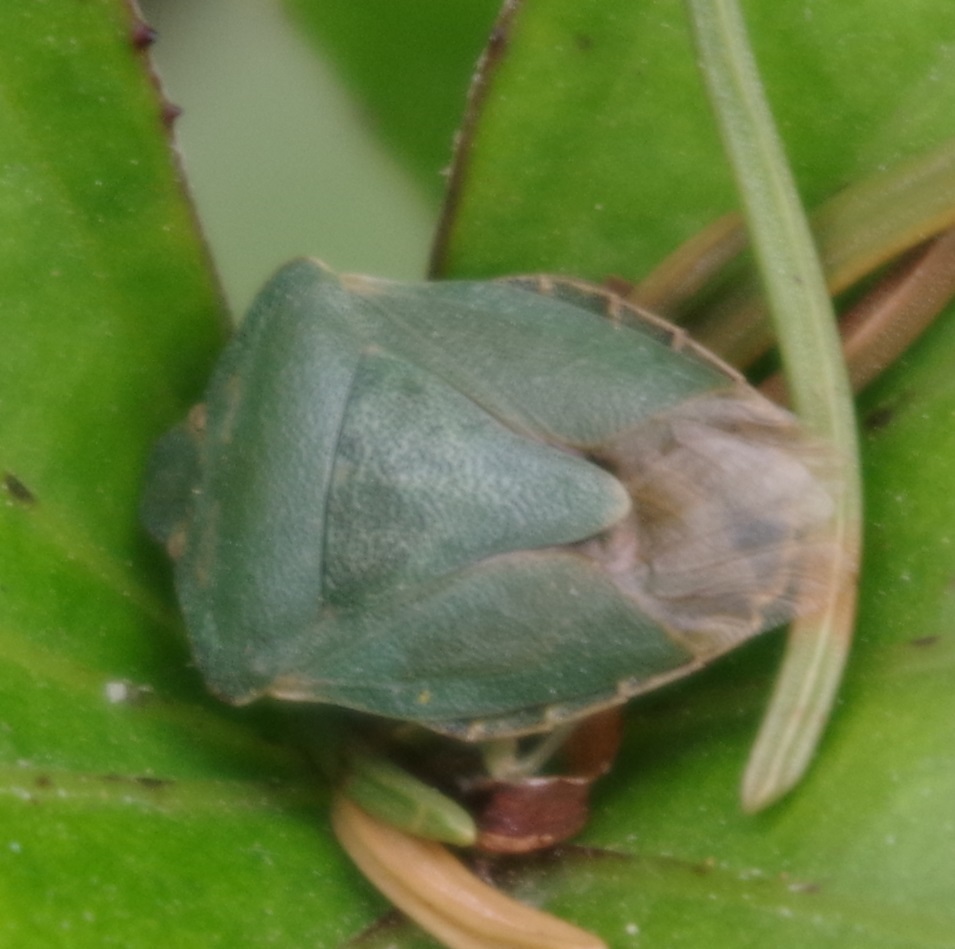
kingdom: Animalia
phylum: Arthropoda
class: Insecta
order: Hemiptera
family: Pentatomidae
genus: Palomena
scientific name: Palomena prasina
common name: Green shieldbug
